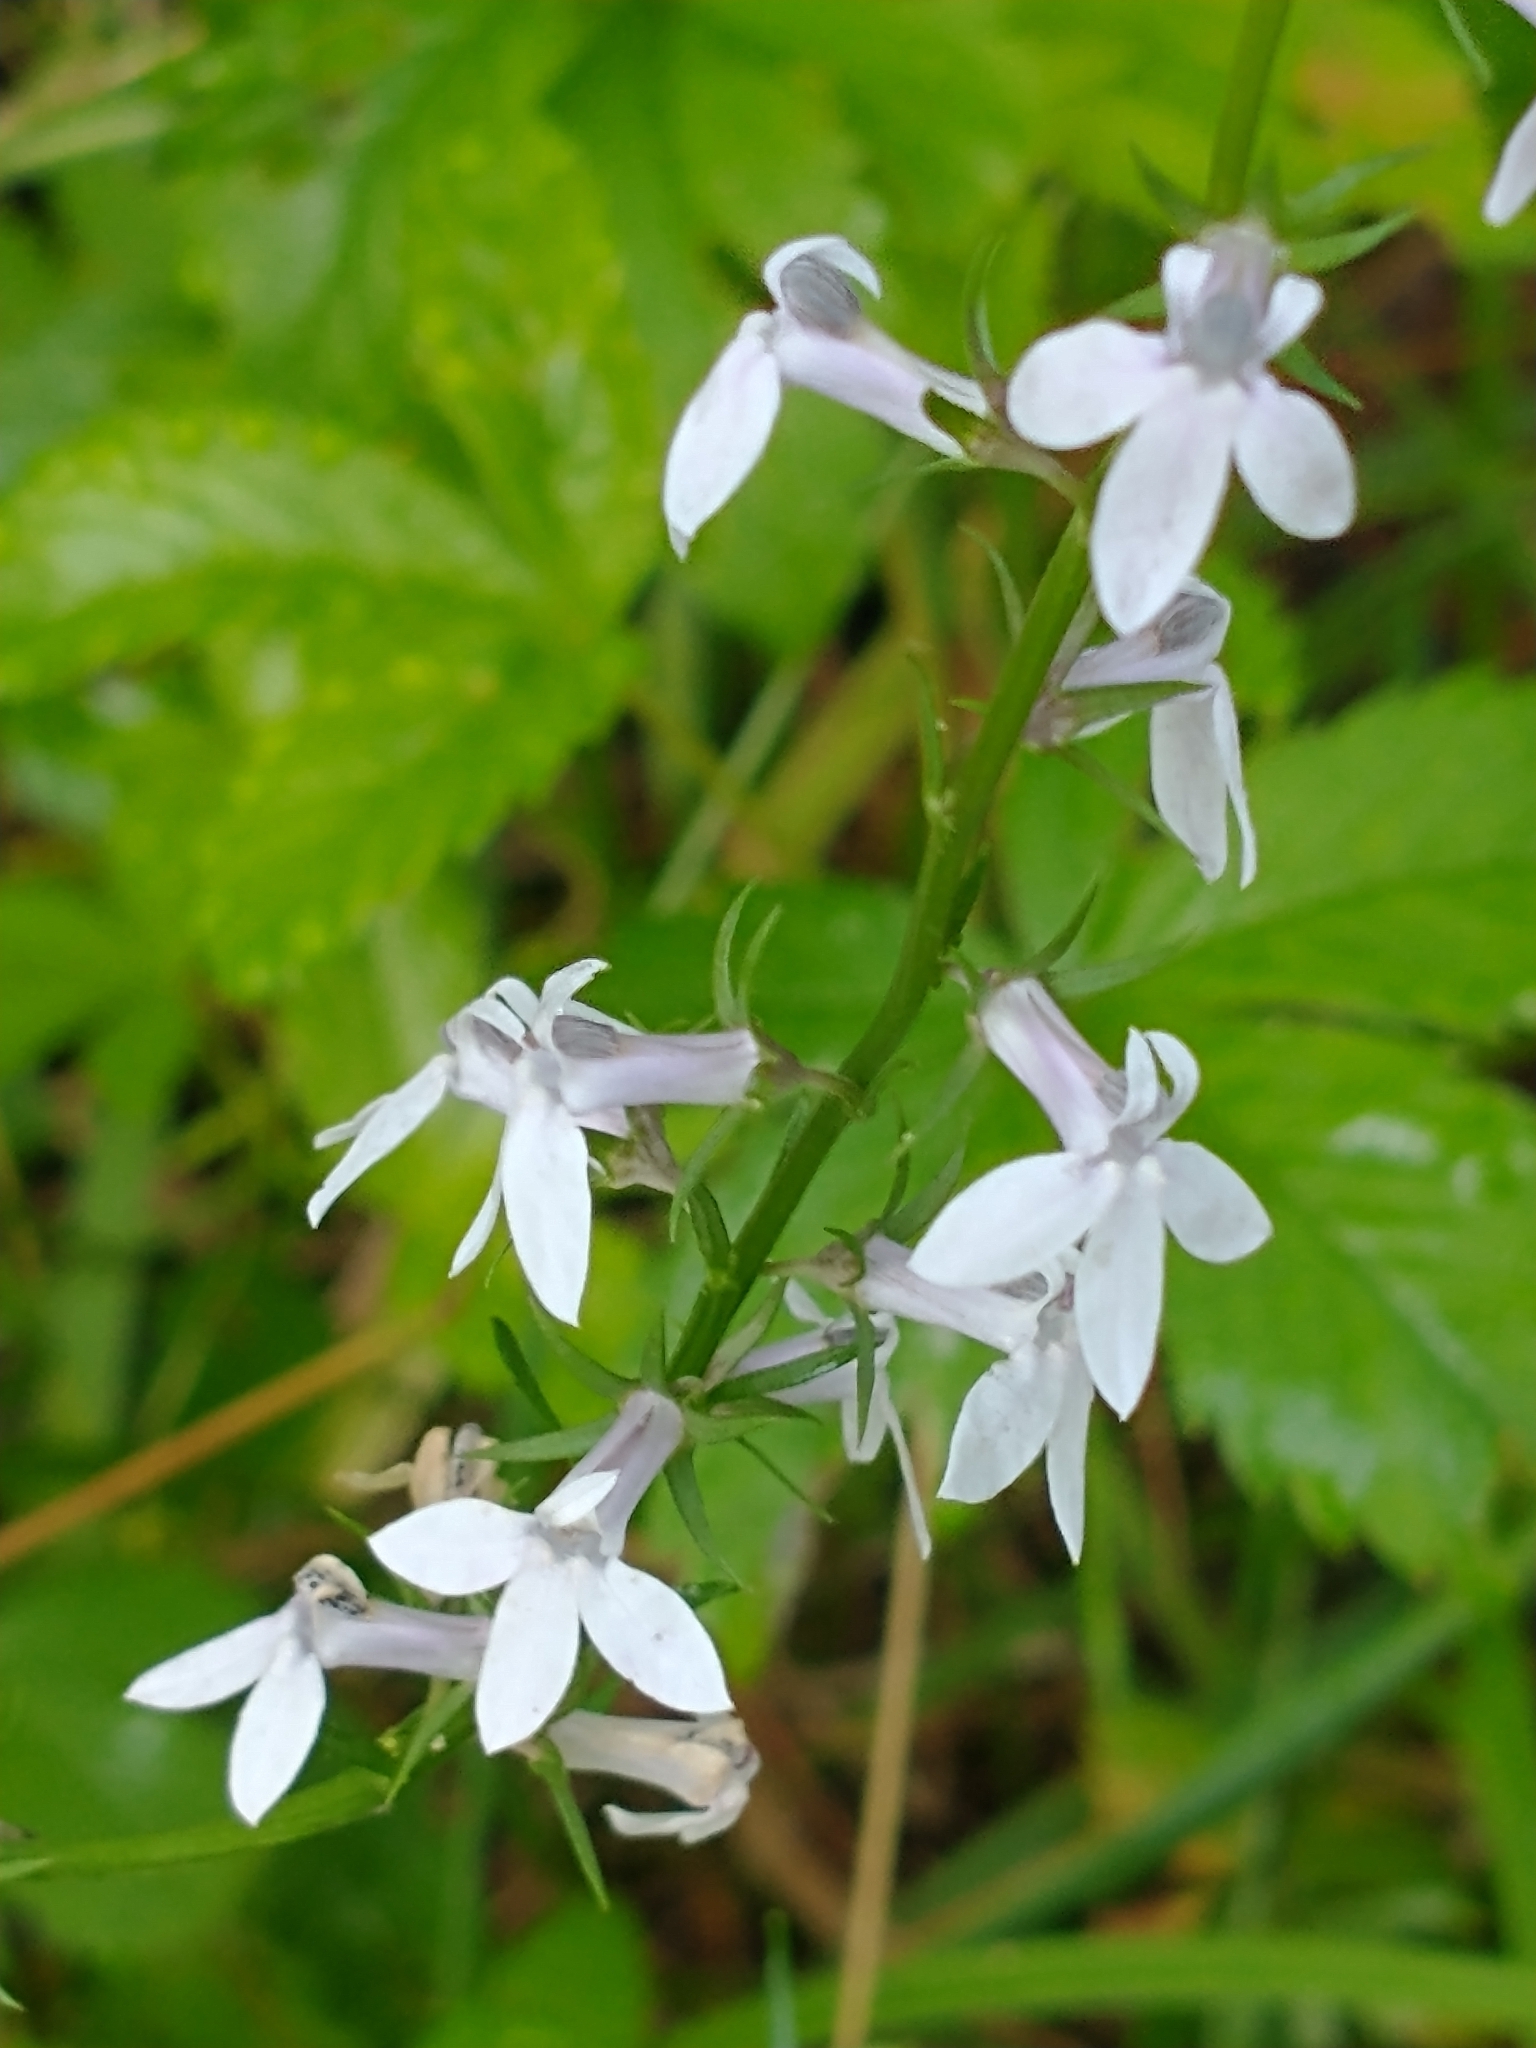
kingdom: Plantae
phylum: Tracheophyta
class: Magnoliopsida
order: Asterales
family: Campanulaceae
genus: Lobelia
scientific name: Lobelia spicata
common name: Pale-spike lobelia
